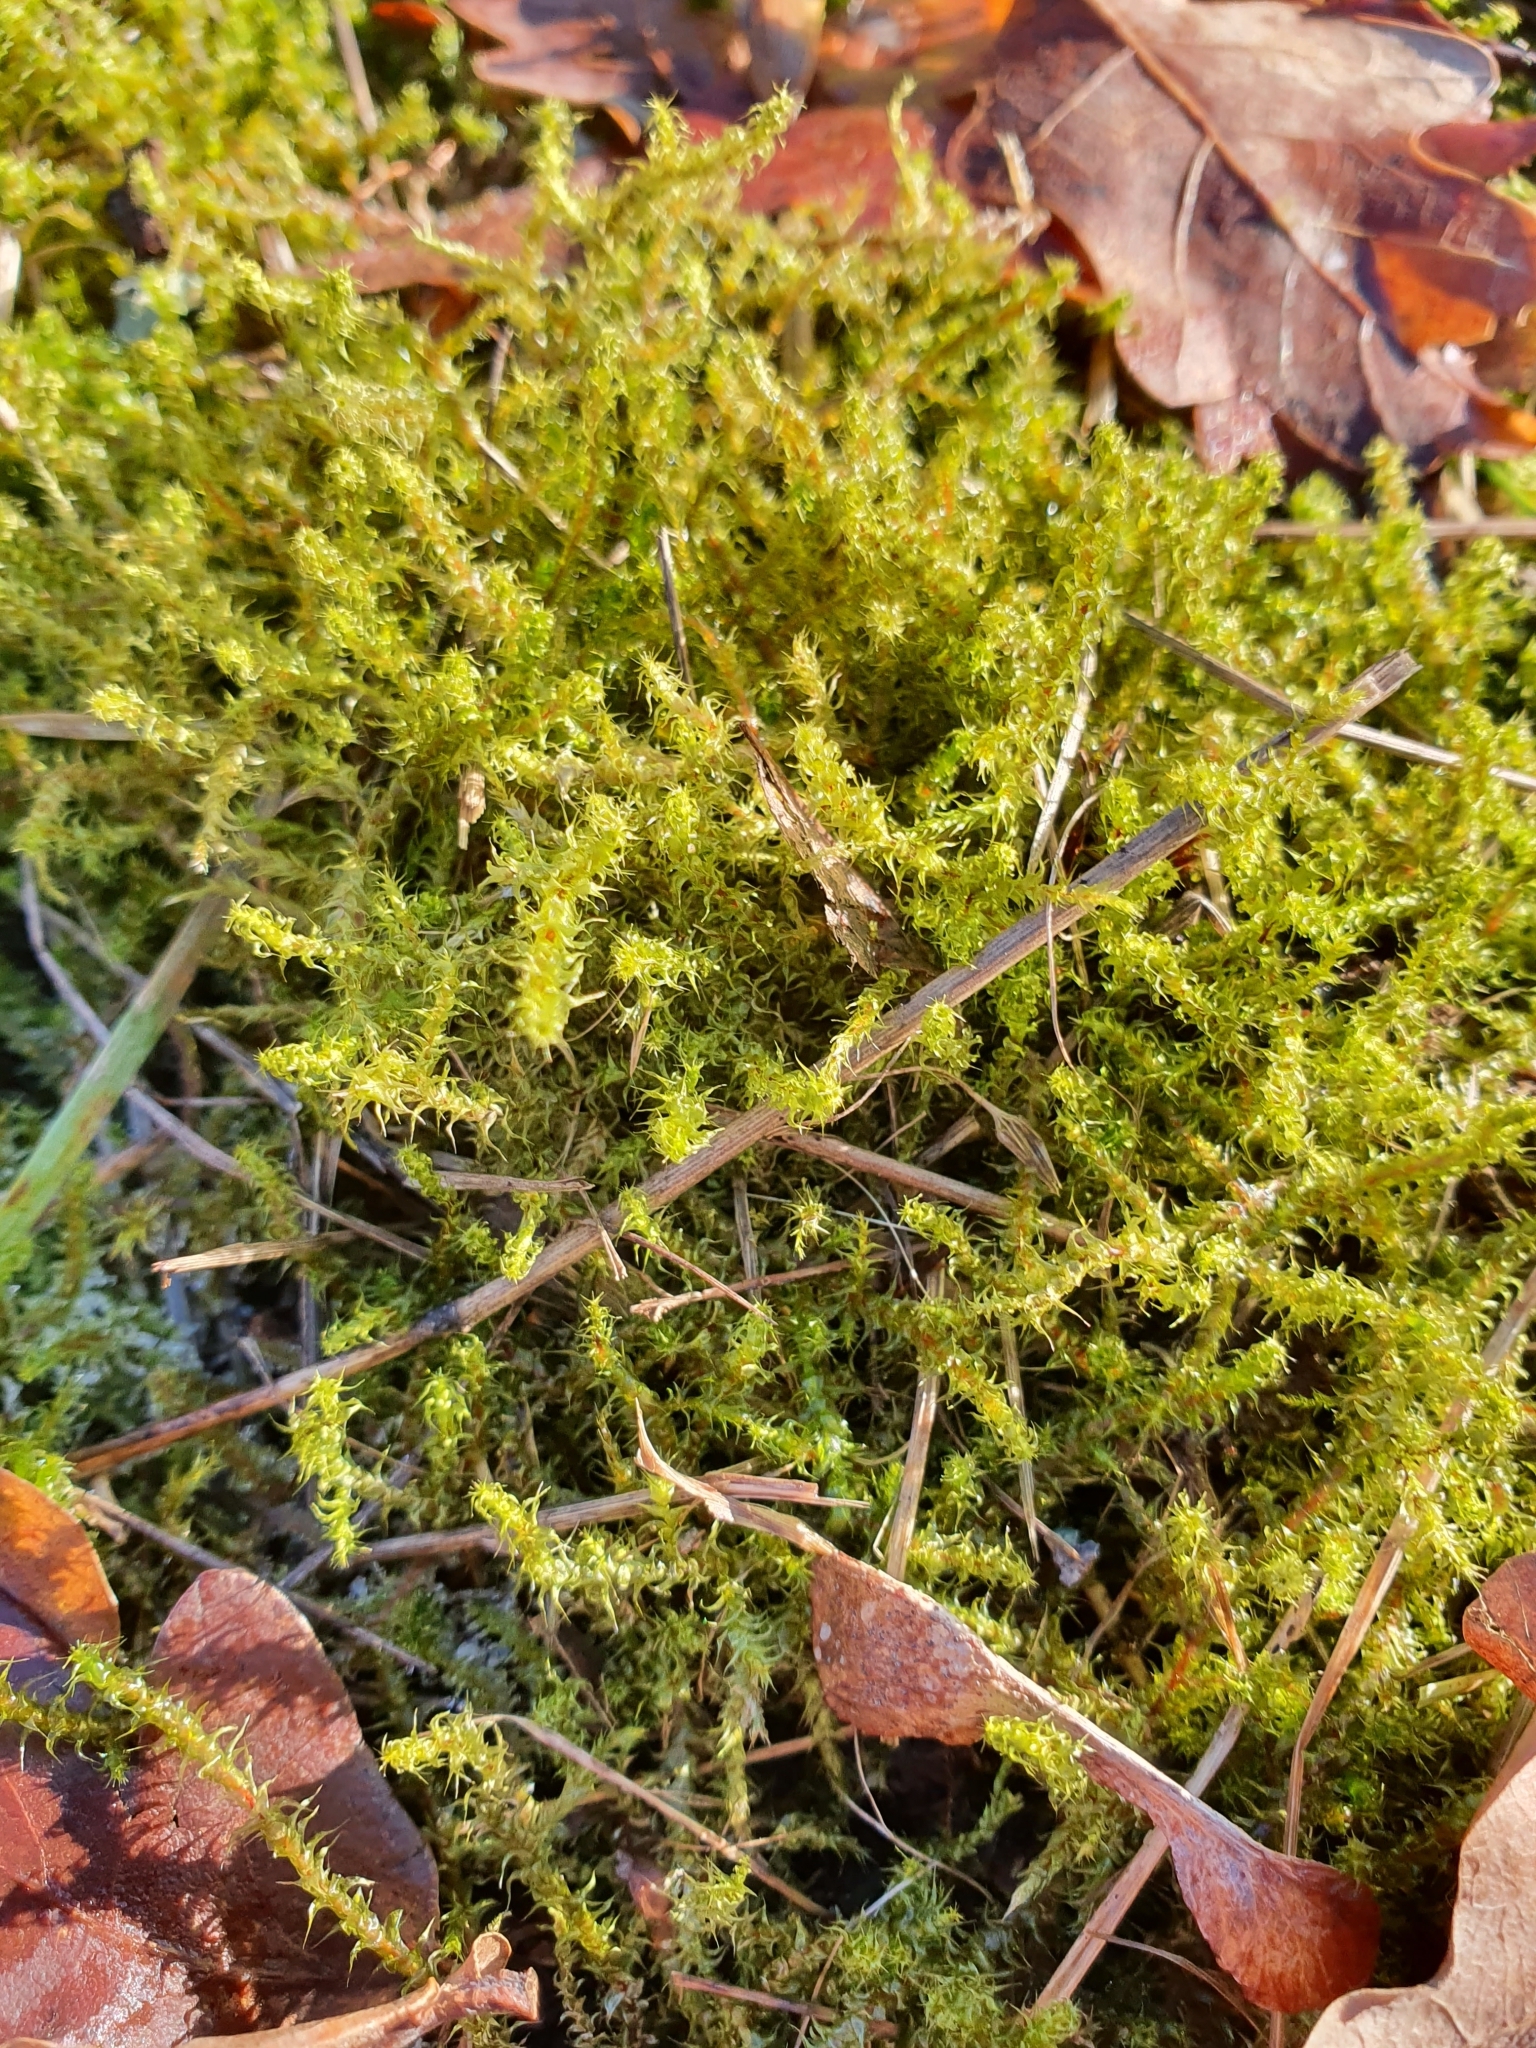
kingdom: Plantae
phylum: Bryophyta
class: Bryopsida
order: Hypnales
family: Hylocomiaceae
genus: Rhytidiadelphus
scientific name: Rhytidiadelphus squarrosus
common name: Springy turf-moss
